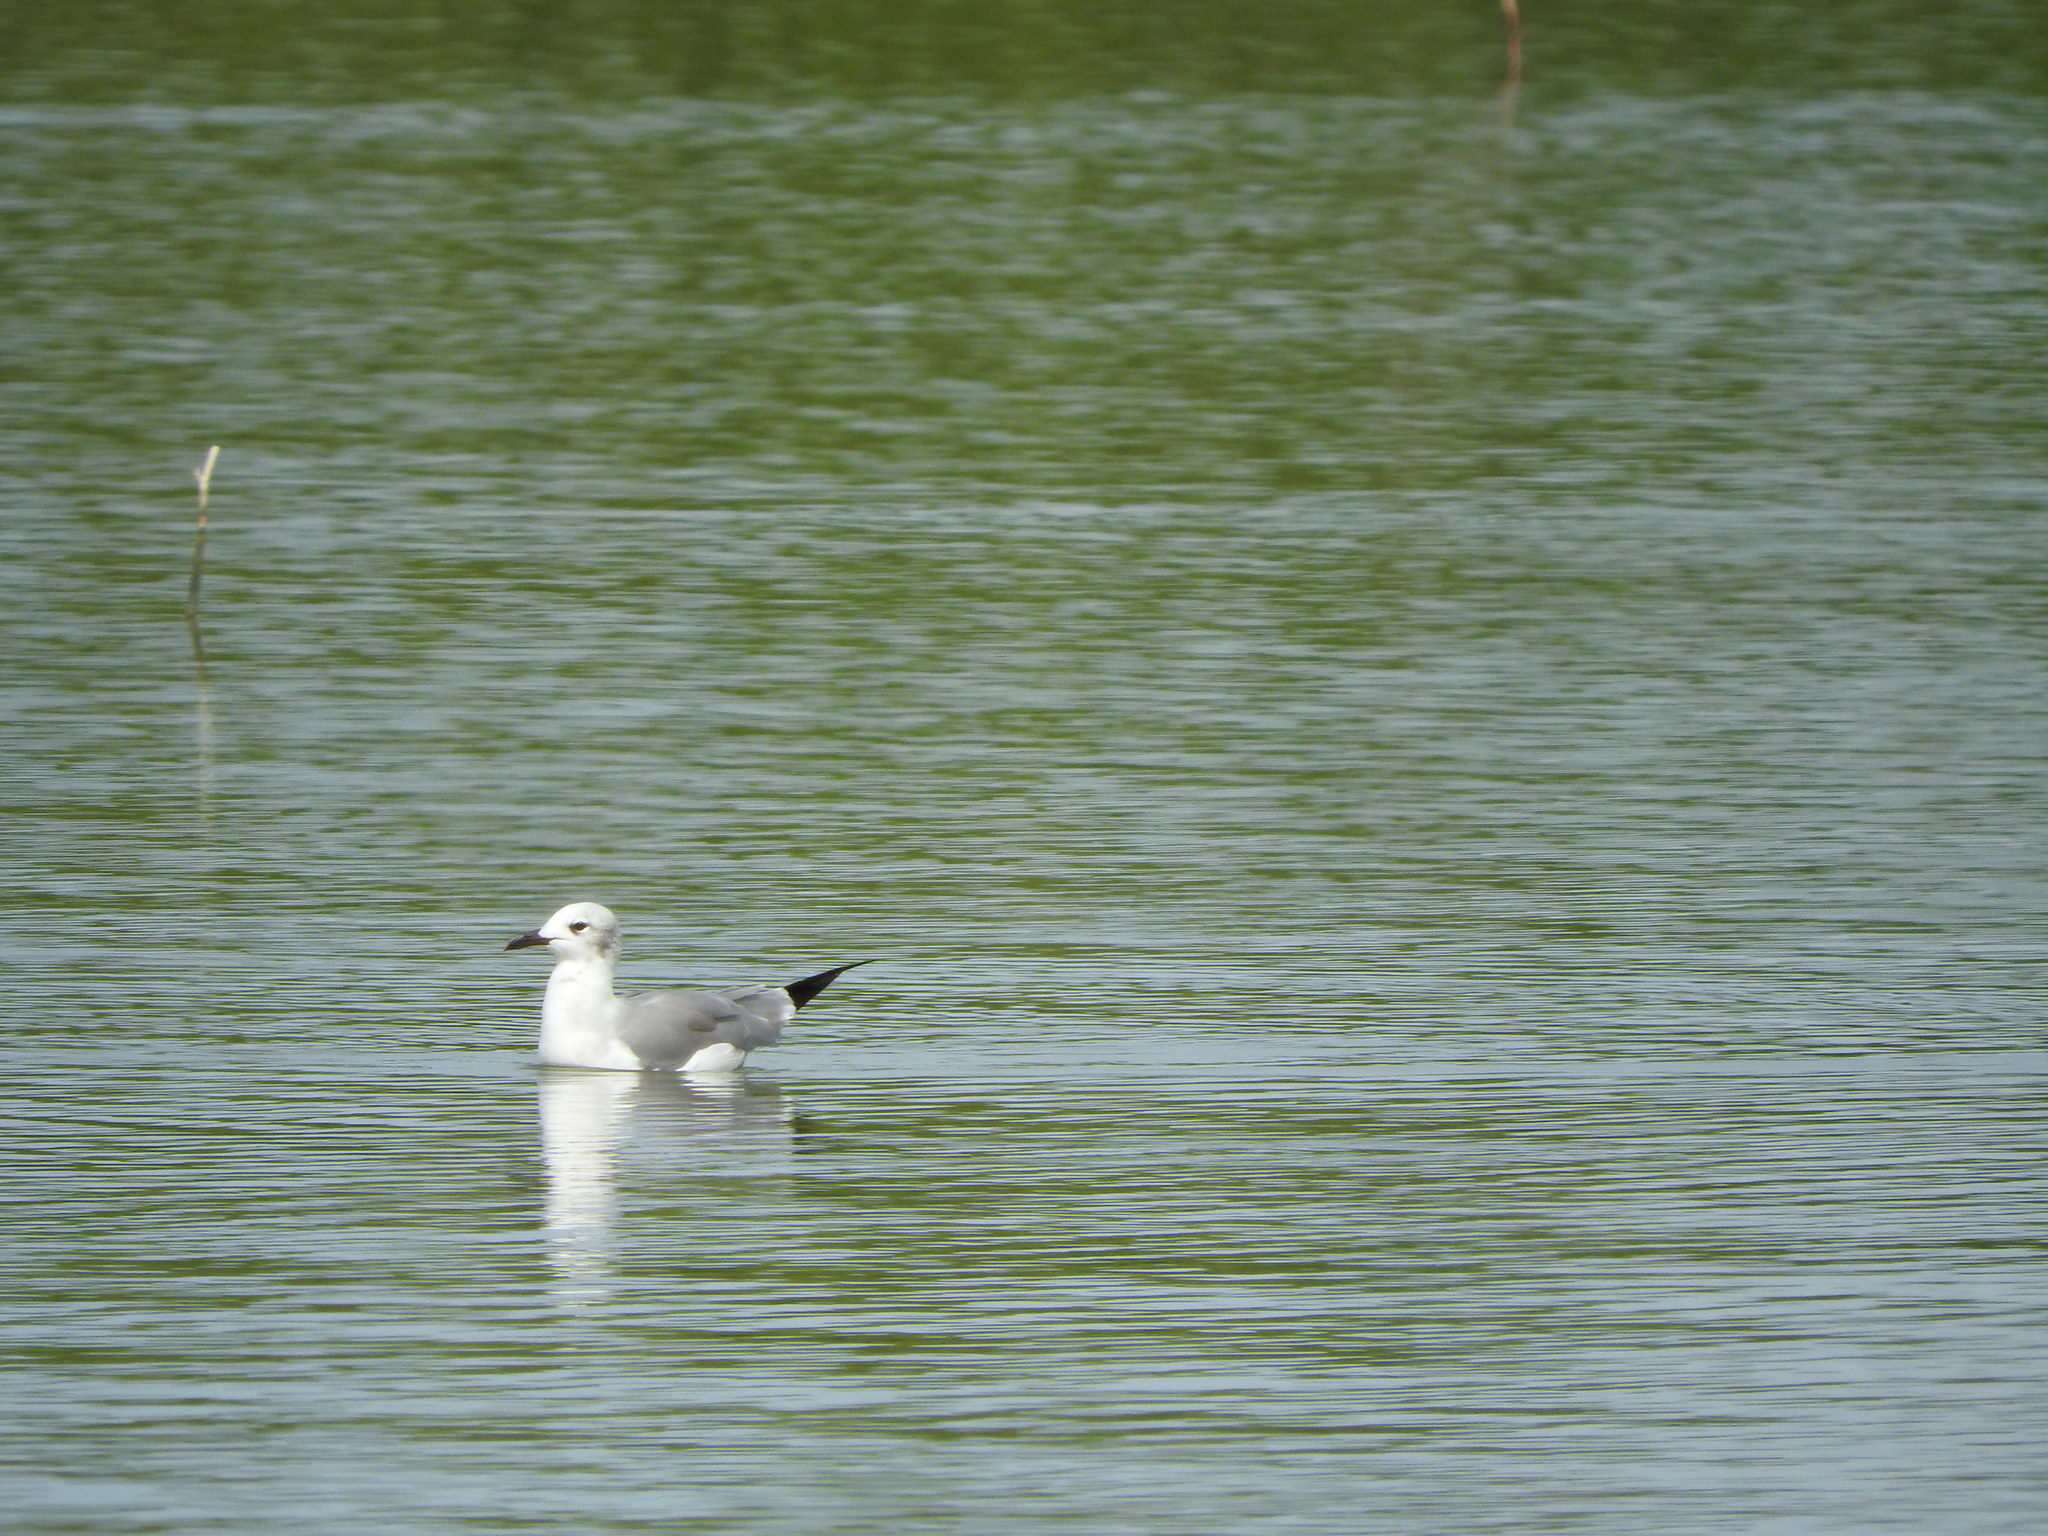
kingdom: Animalia
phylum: Chordata
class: Aves
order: Charadriiformes
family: Laridae
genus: Leucophaeus
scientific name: Leucophaeus atricilla
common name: Laughing gull
